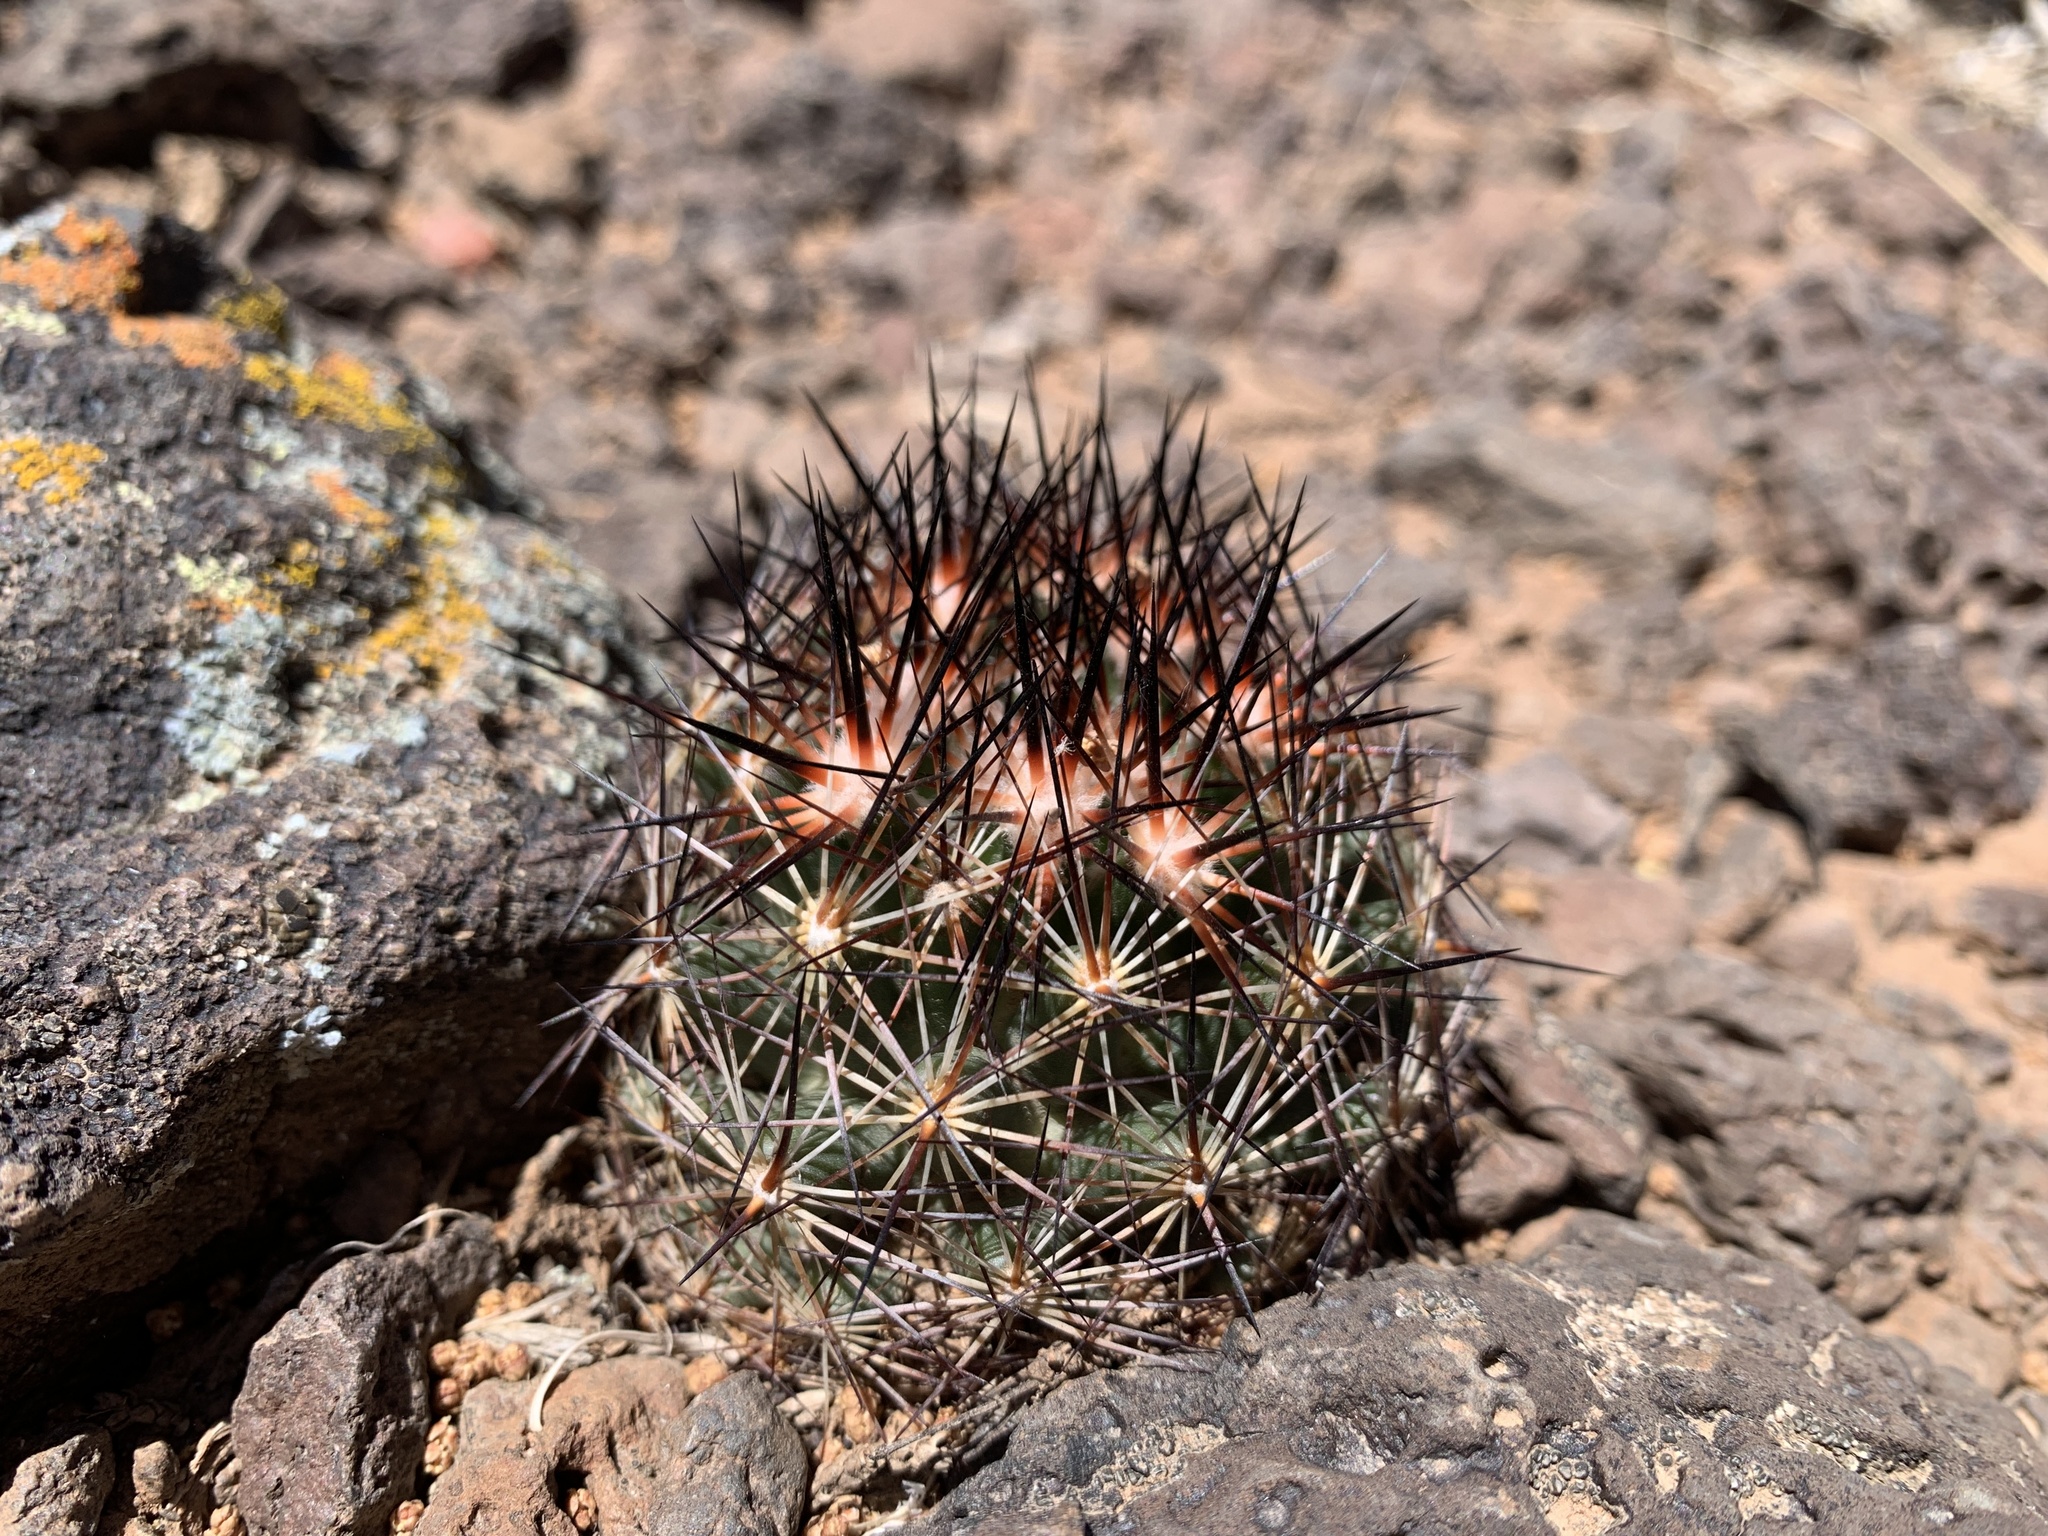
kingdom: Plantae
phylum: Tracheophyta
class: Magnoliopsida
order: Caryophyllales
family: Cactaceae
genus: Pelecyphora
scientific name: Pelecyphora vivipara
